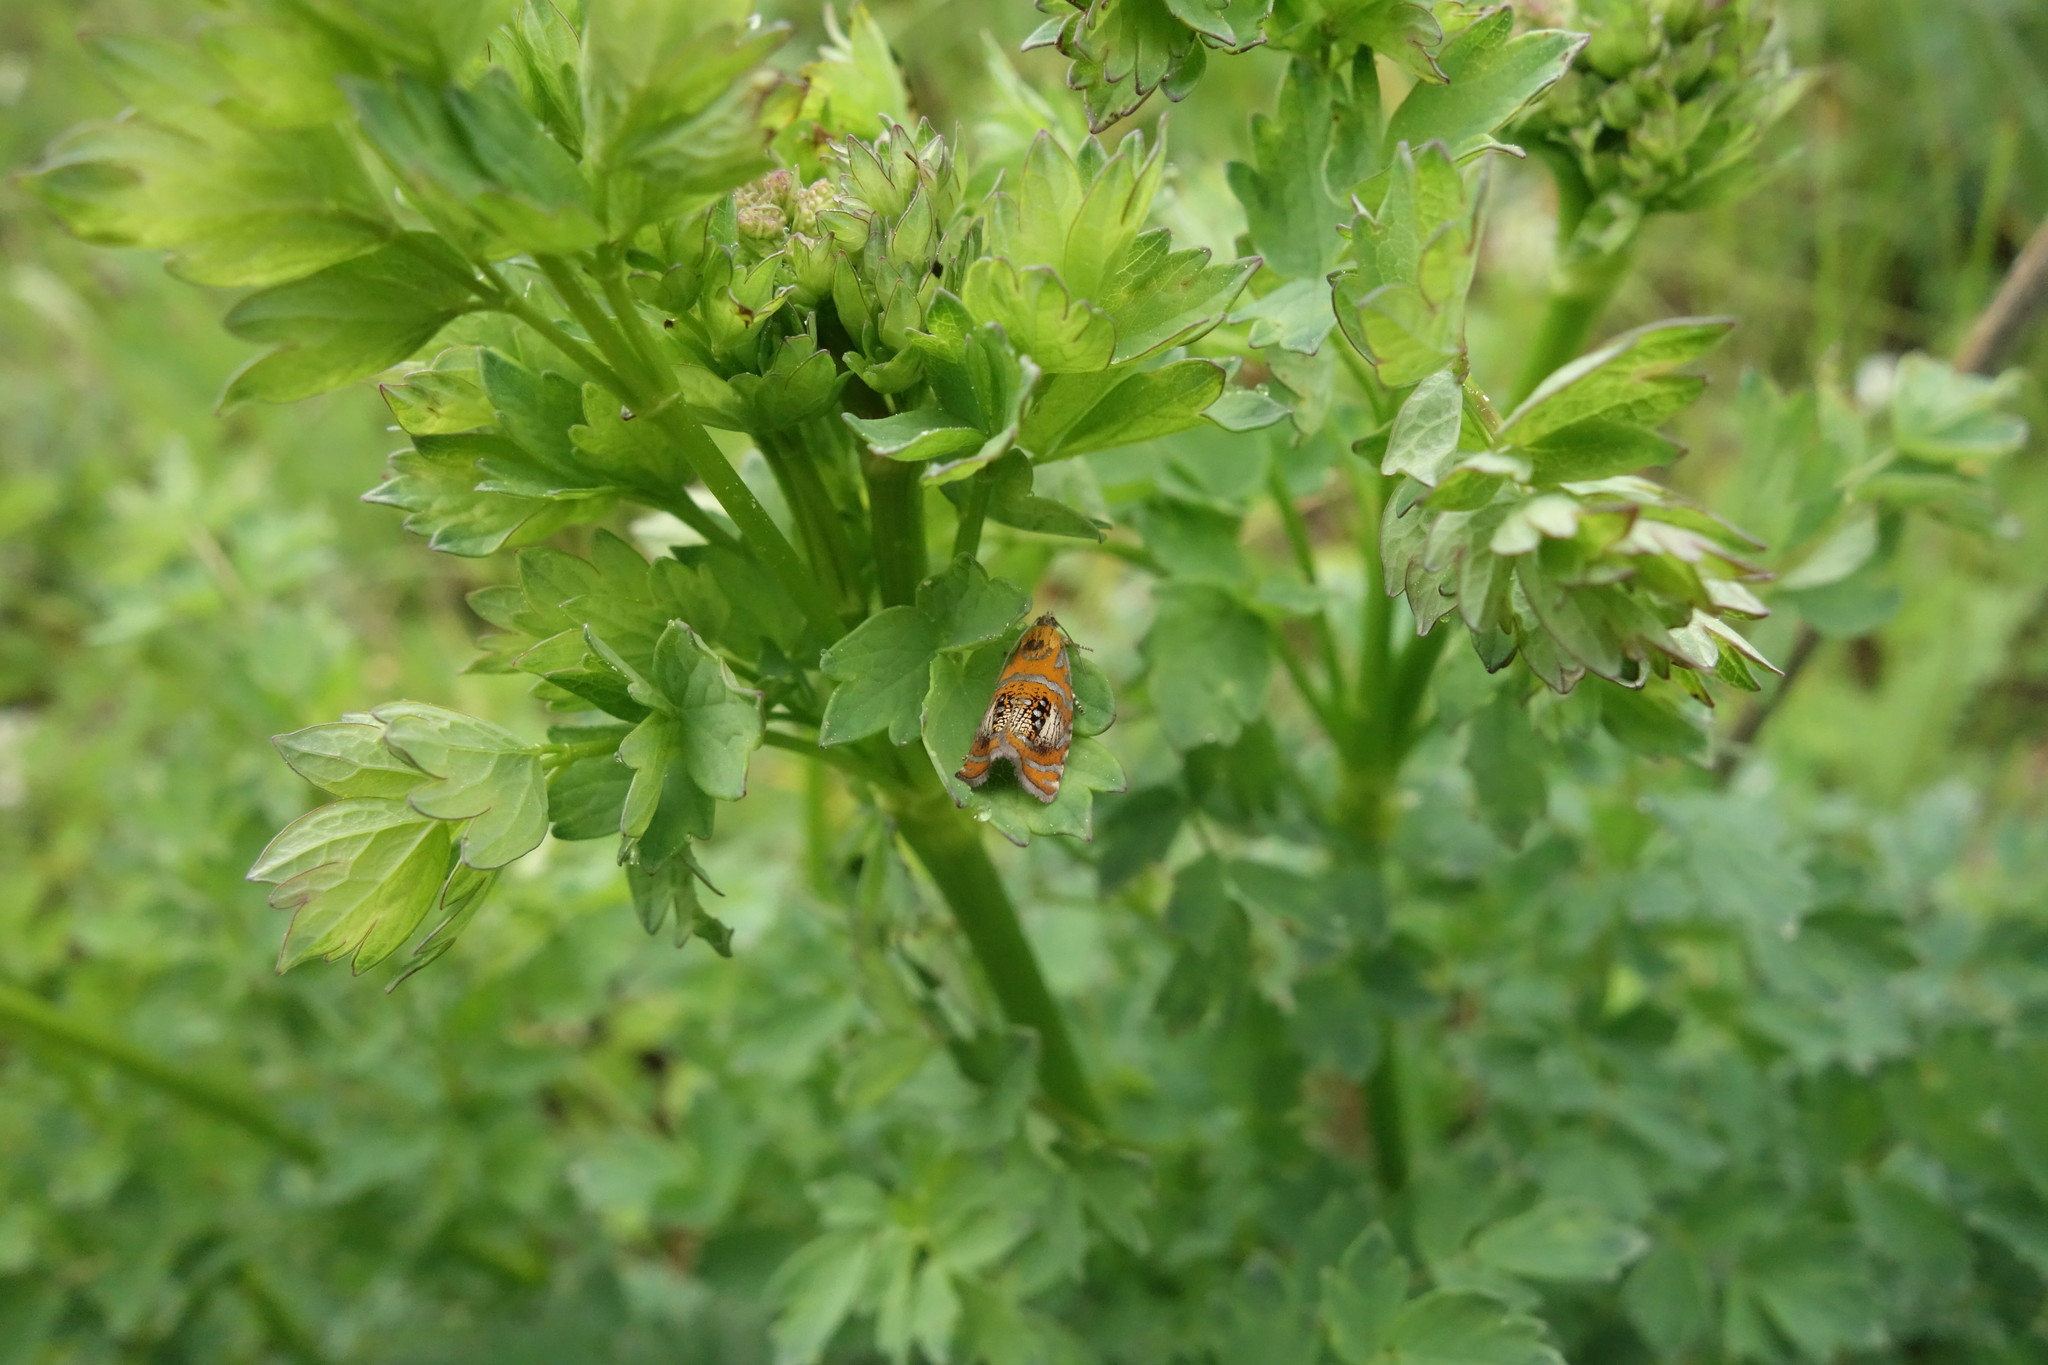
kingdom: Animalia
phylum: Arthropoda
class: Insecta
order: Lepidoptera
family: Tortricidae
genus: Olethreutes
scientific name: Olethreutes arcuella
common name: Arched marble
